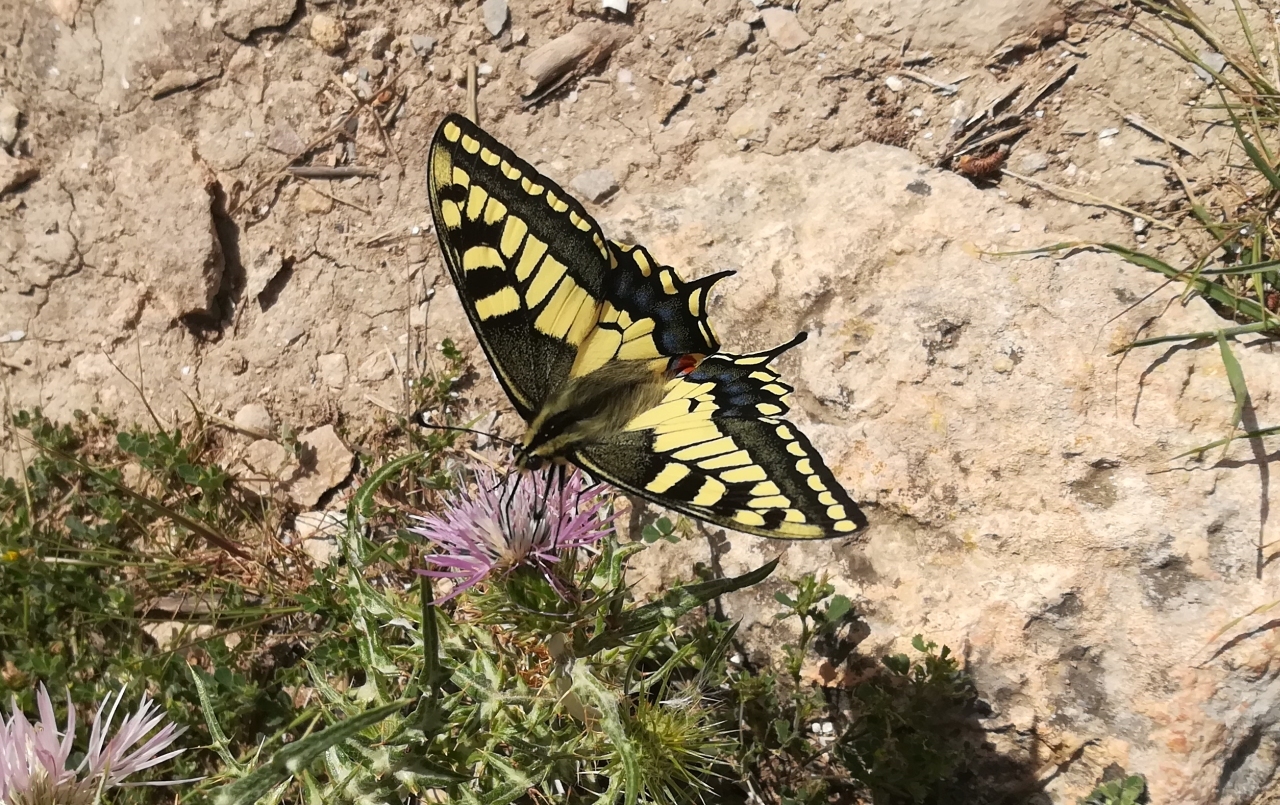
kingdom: Animalia
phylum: Arthropoda
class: Insecta
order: Lepidoptera
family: Papilionidae
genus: Papilio
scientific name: Papilio machaon
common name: Swallowtail
